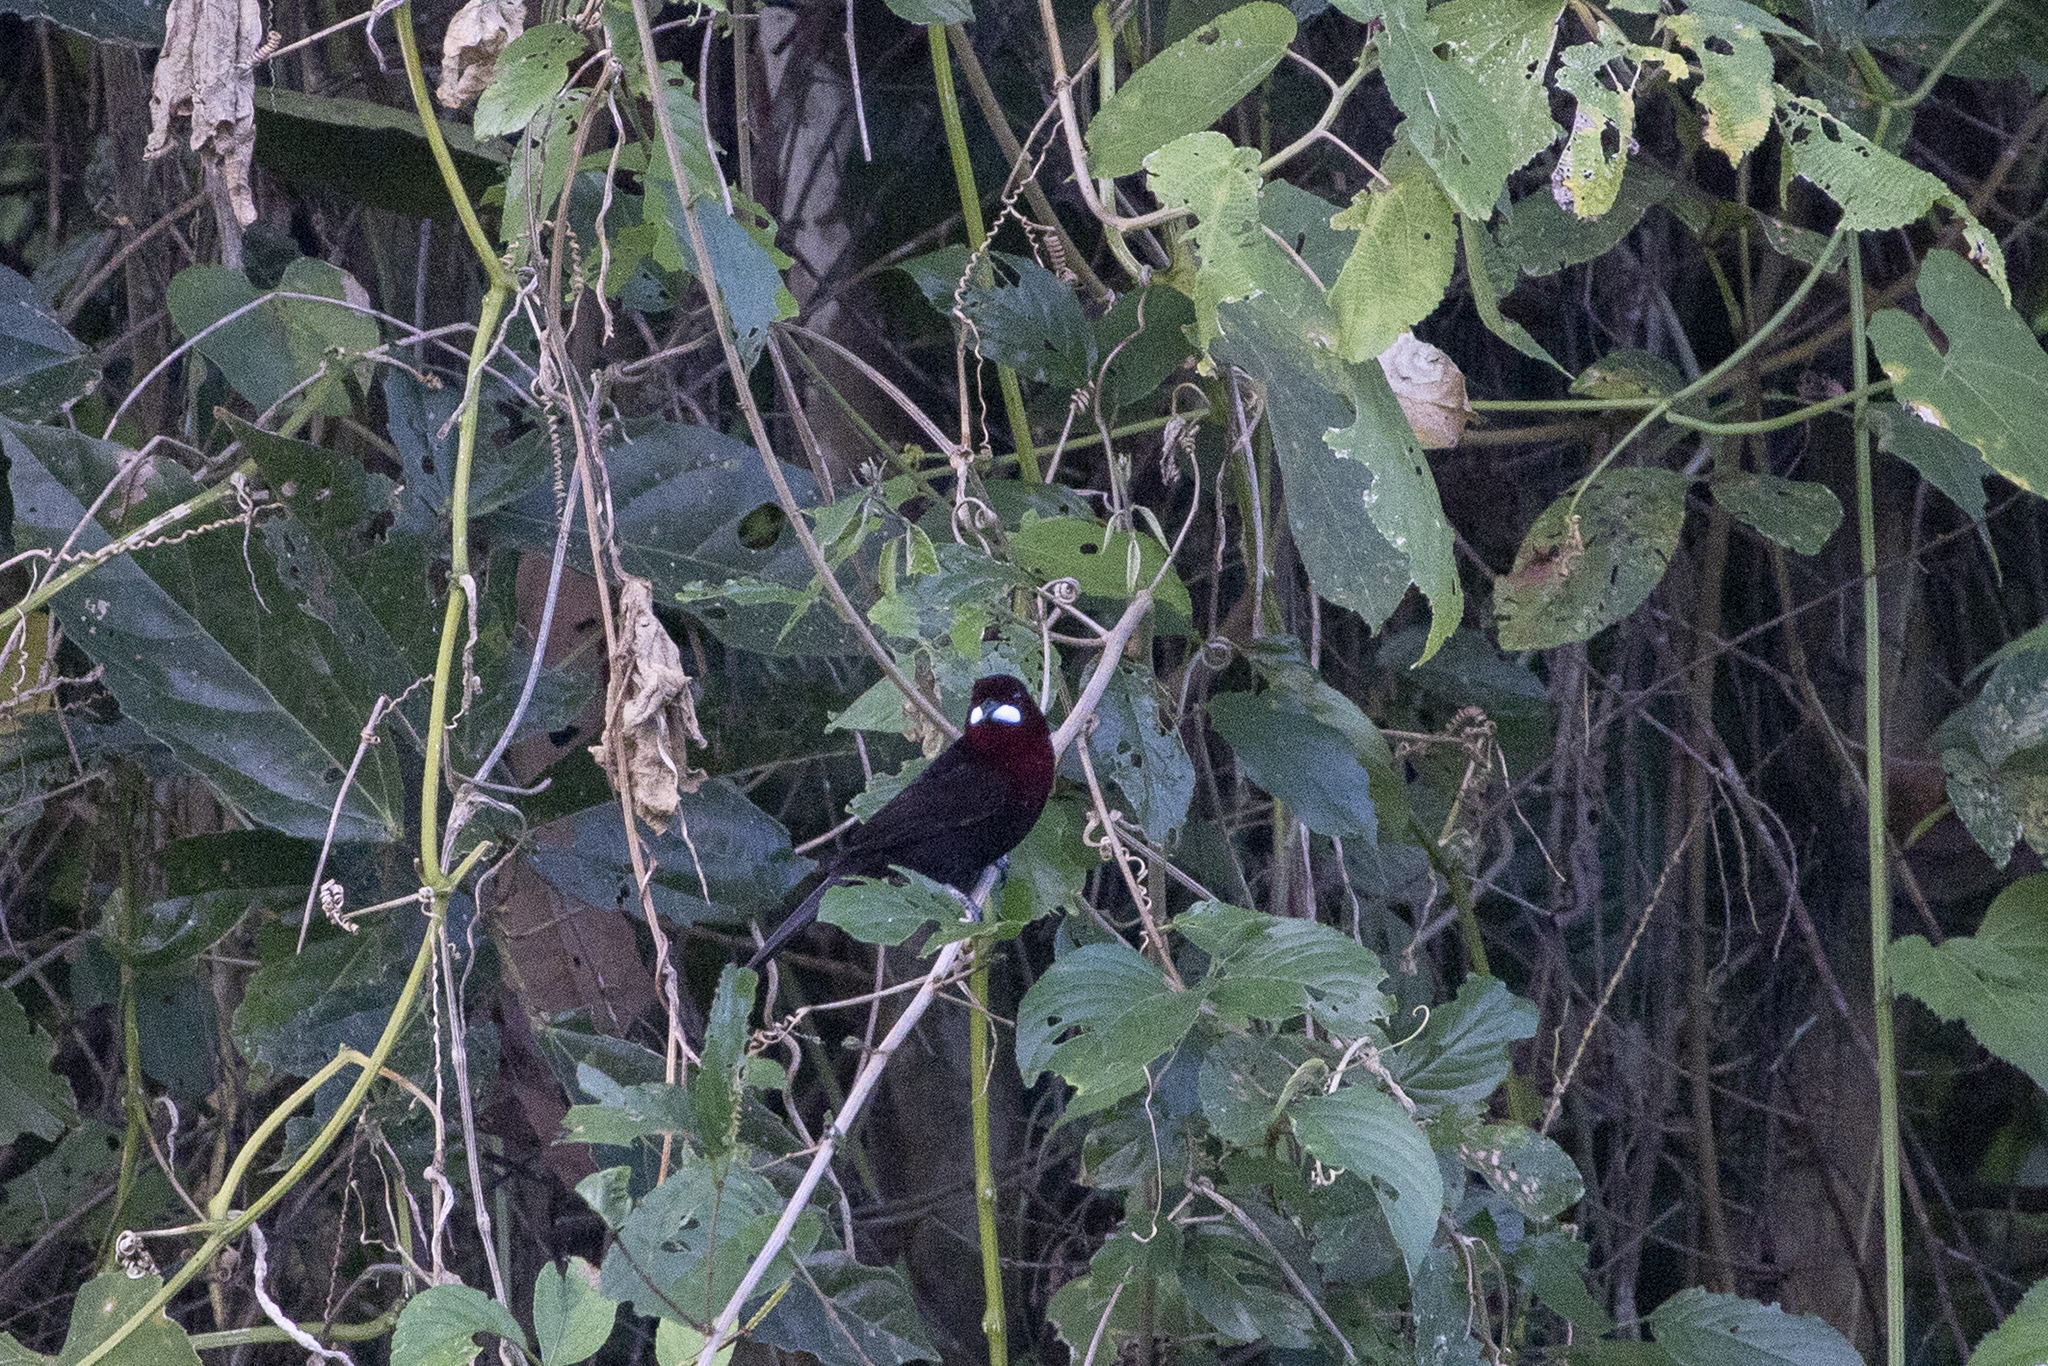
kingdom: Animalia
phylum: Chordata
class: Aves
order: Passeriformes
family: Thraupidae
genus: Ramphocelus
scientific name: Ramphocelus carbo
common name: Silver-beaked tanager
